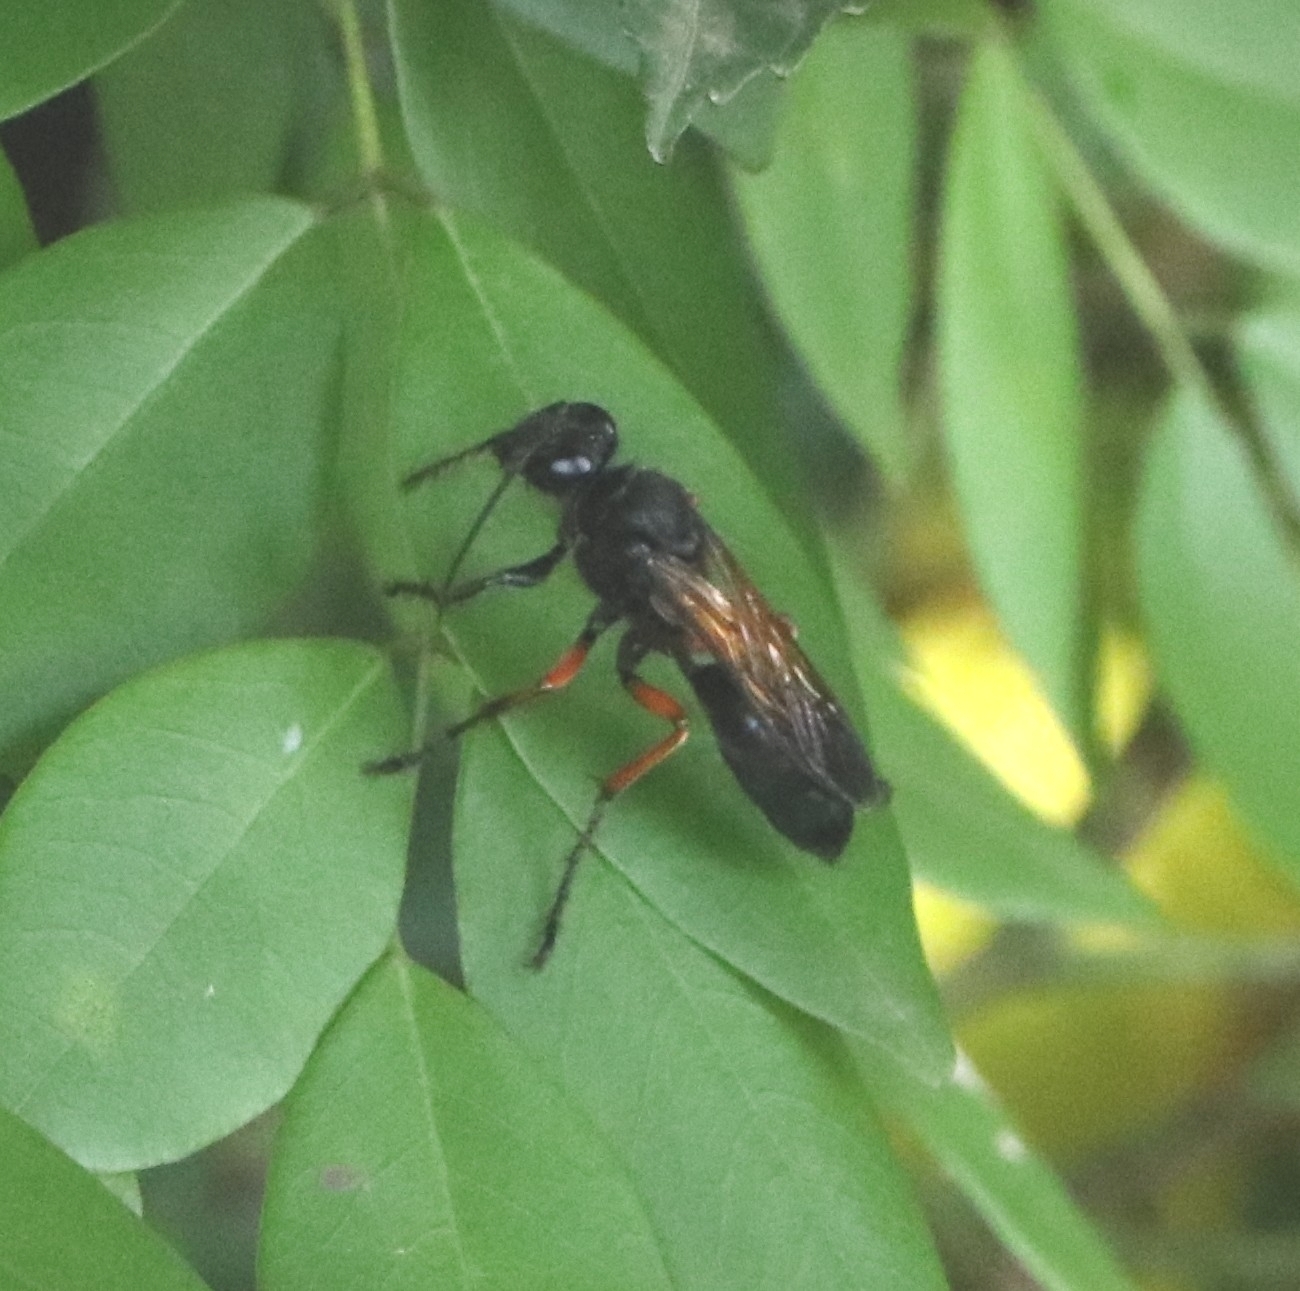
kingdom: Animalia
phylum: Arthropoda
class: Insecta
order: Hymenoptera
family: Sphecidae
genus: Sphex
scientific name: Sphex subtruncatus
